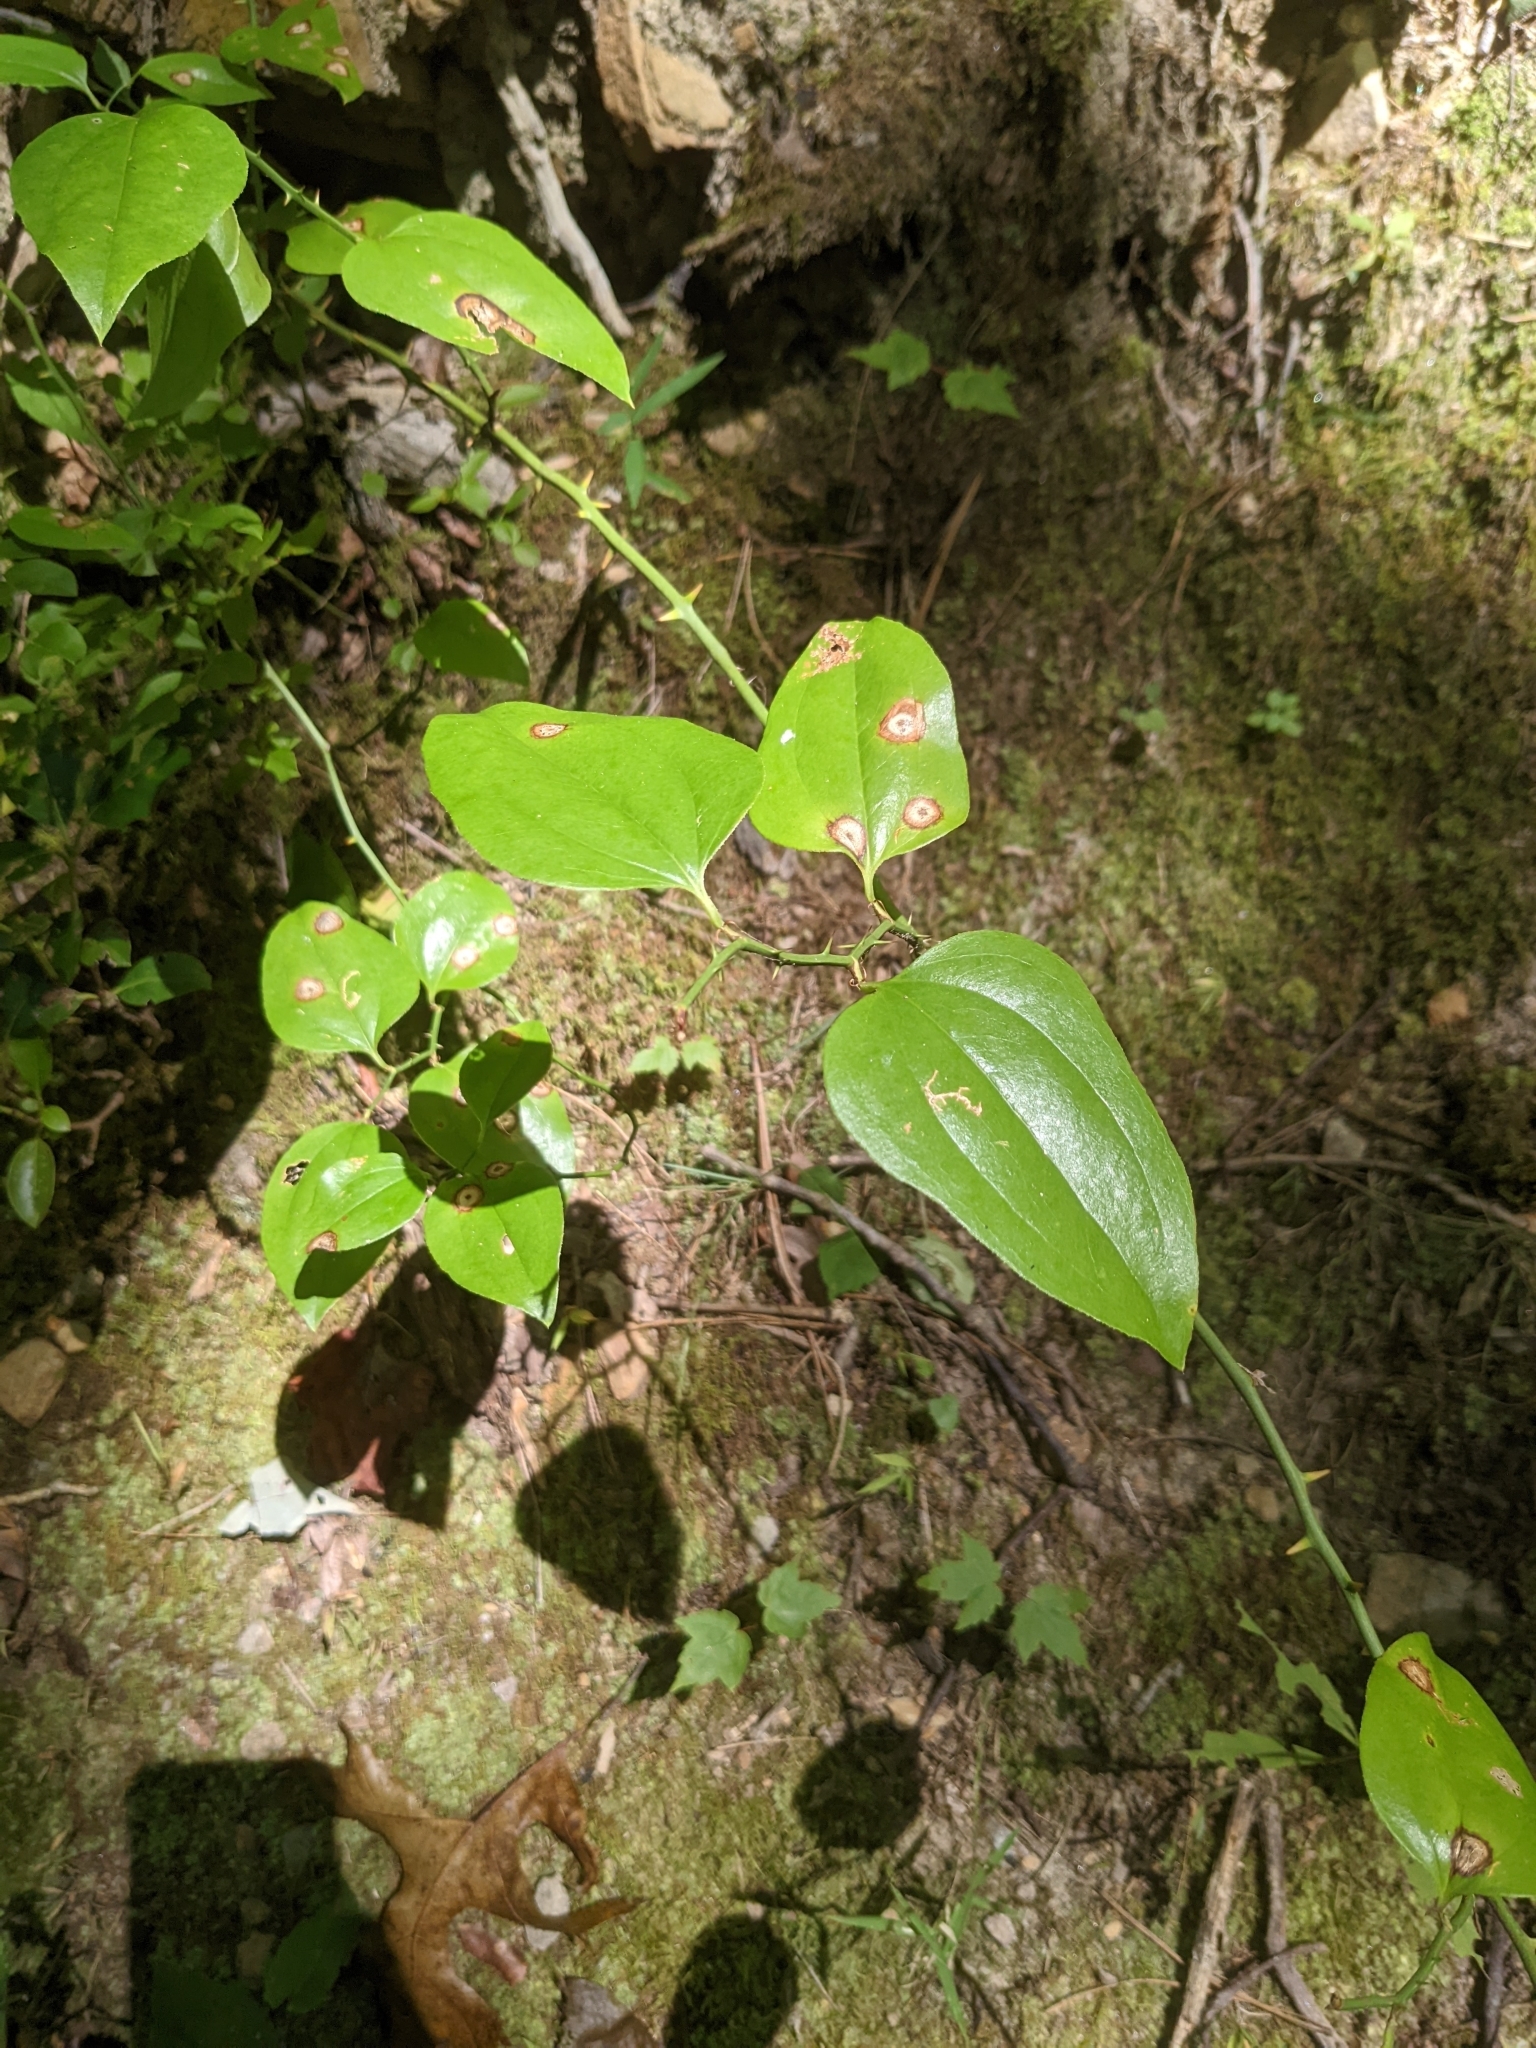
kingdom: Plantae
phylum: Tracheophyta
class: Liliopsida
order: Liliales
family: Smilacaceae
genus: Smilax
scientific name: Smilax rotundifolia
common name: Bullbriar
